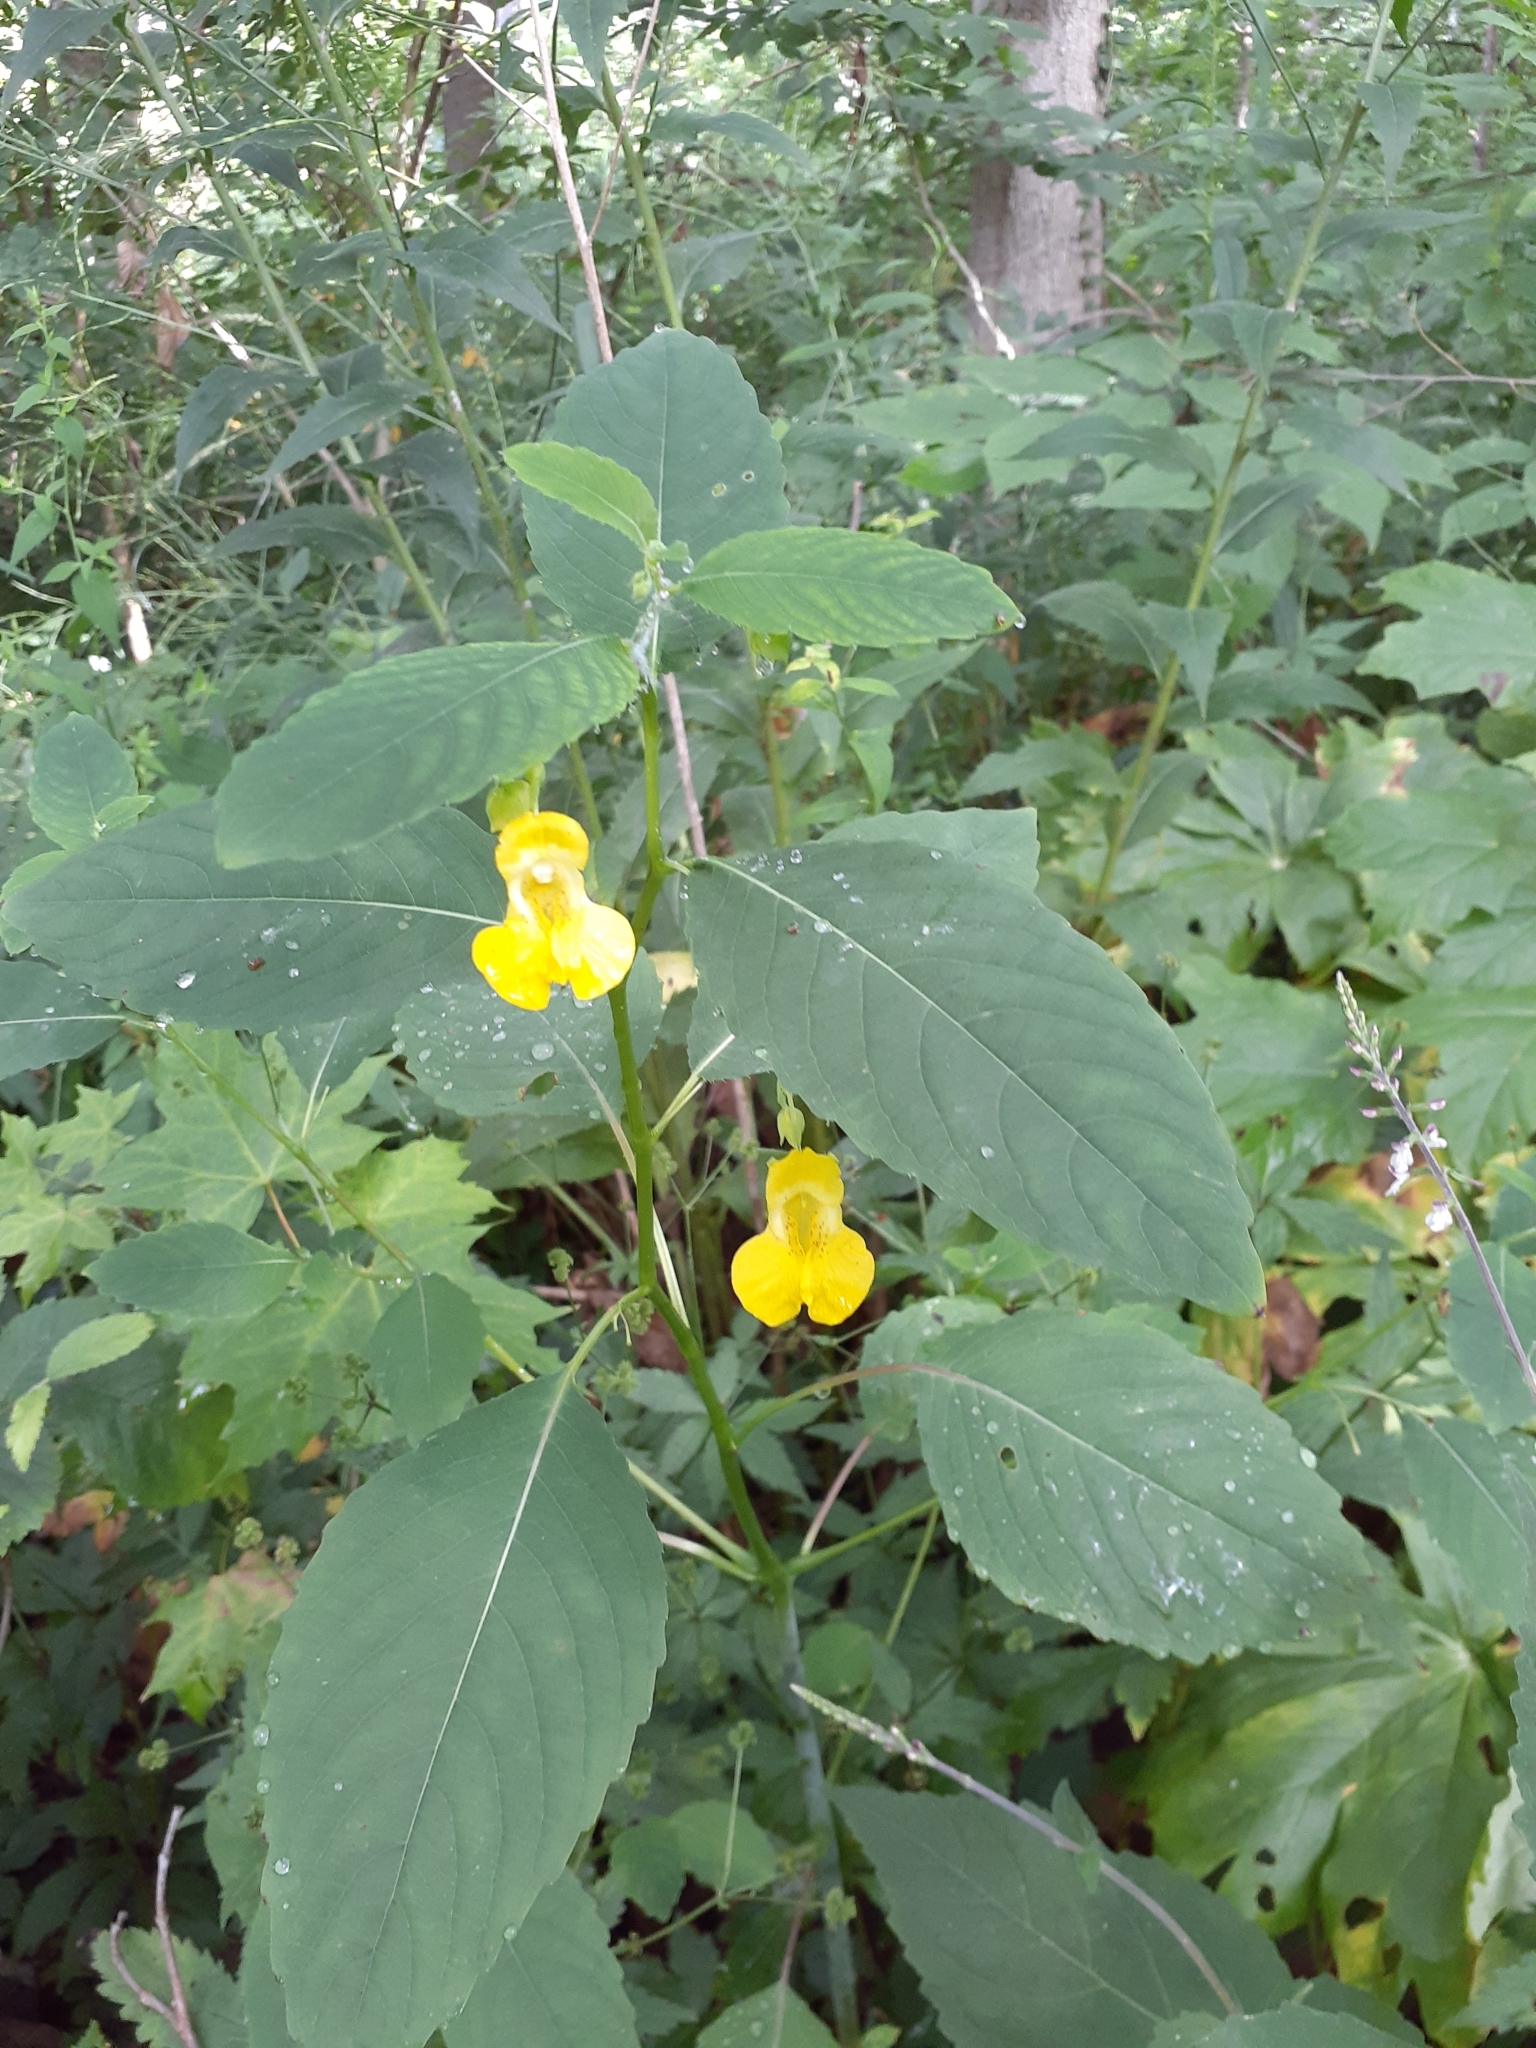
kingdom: Plantae
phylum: Tracheophyta
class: Magnoliopsida
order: Ericales
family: Balsaminaceae
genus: Impatiens
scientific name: Impatiens pallida
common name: Pale snapweed
